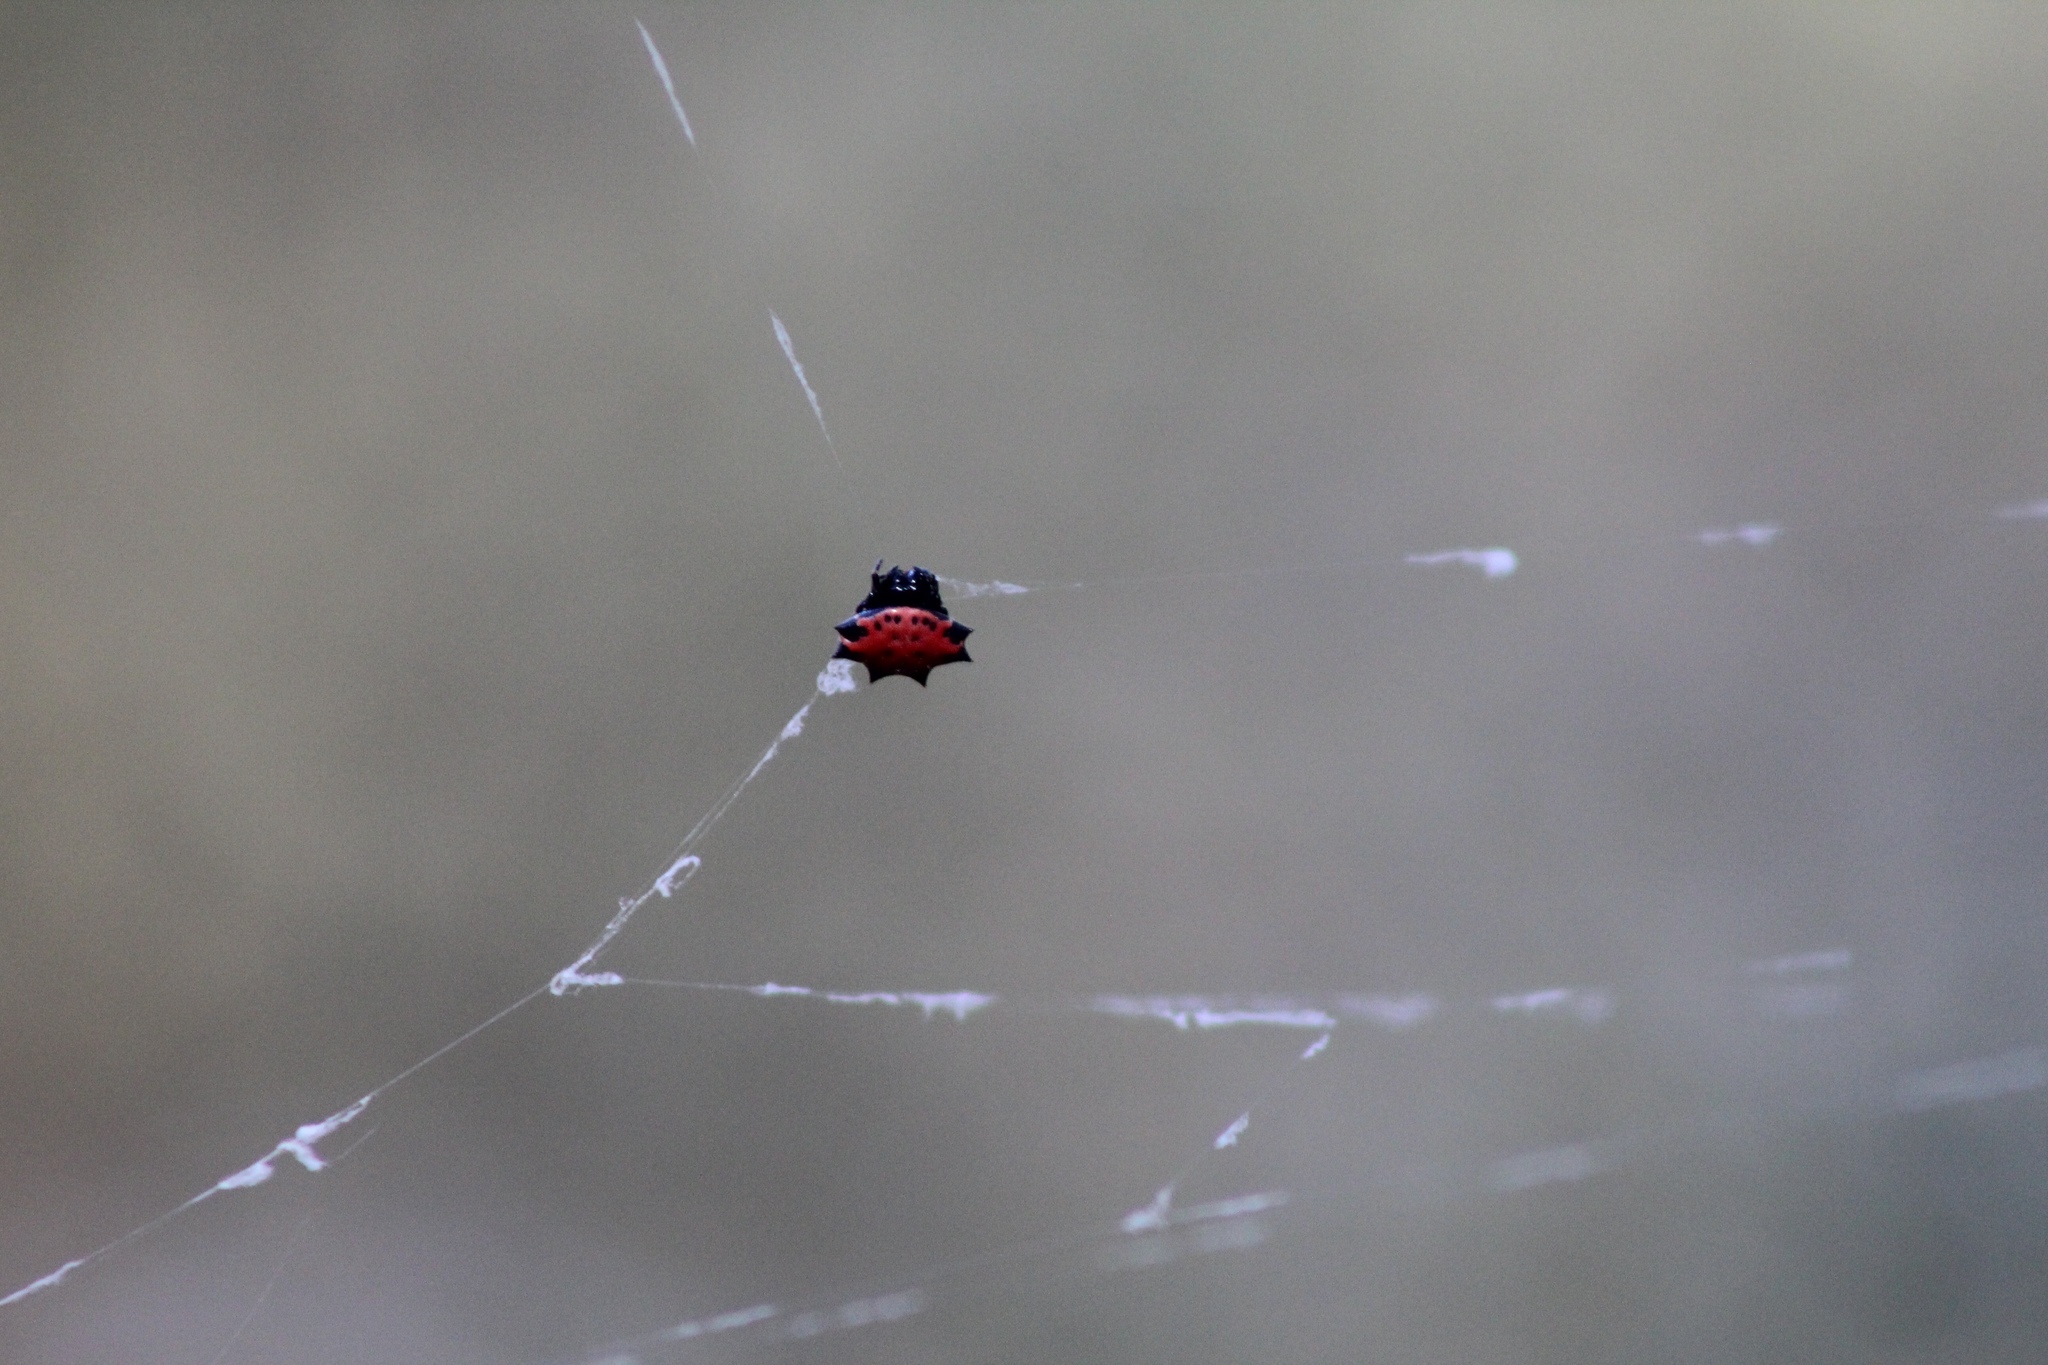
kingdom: Animalia
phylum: Arthropoda
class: Arachnida
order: Araneae
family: Araneidae
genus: Gasteracantha
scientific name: Gasteracantha cancriformis
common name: Orb weavers
